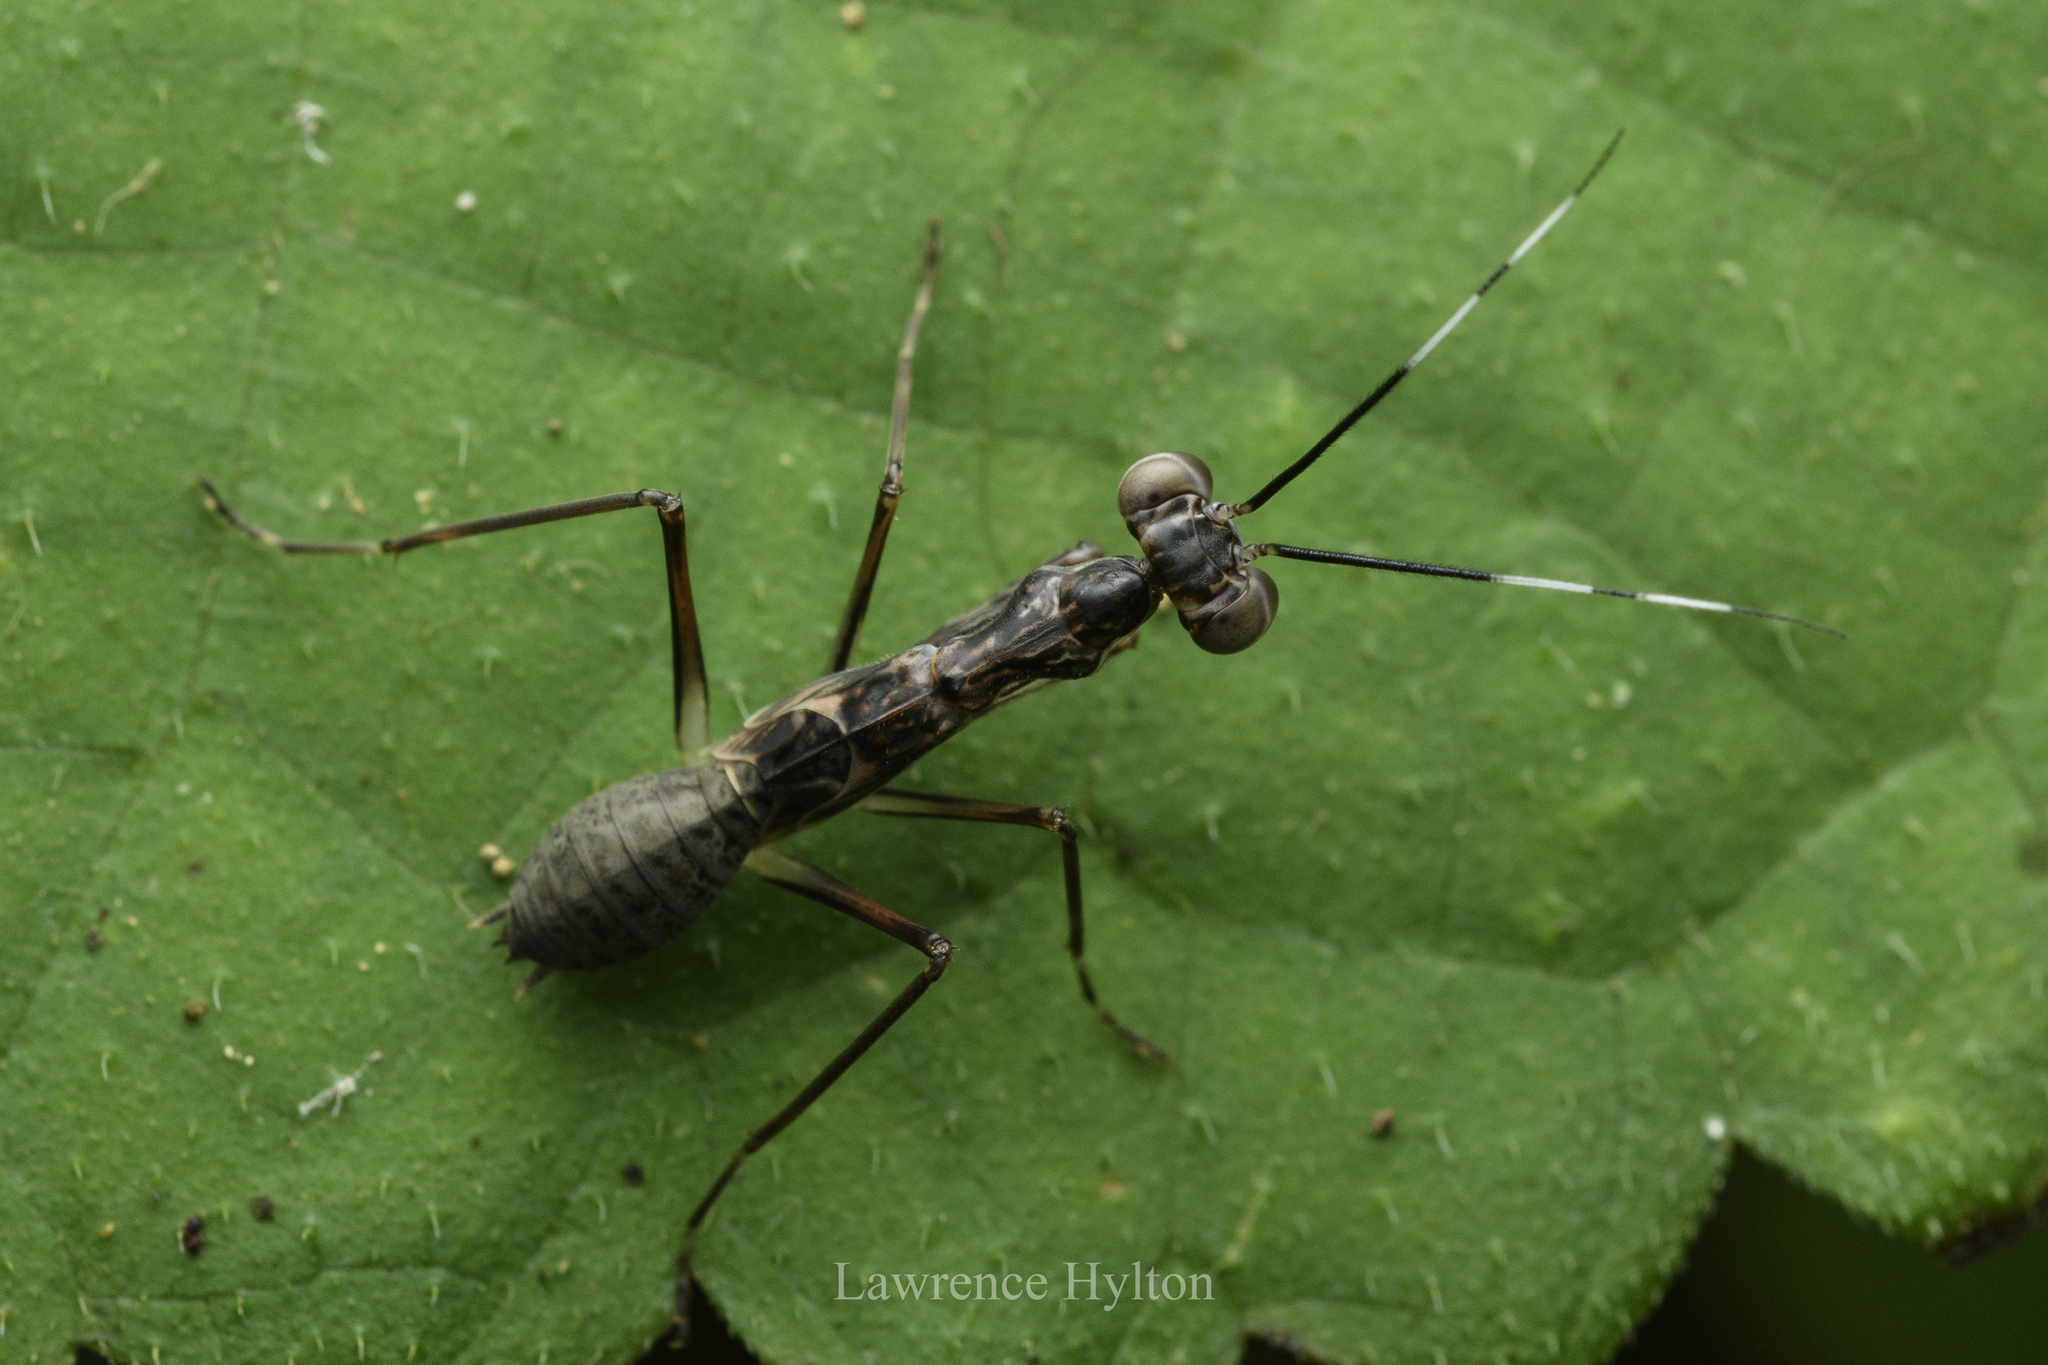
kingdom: Animalia
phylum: Arthropoda
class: Insecta
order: Mantodea
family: Gonypetidae
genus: Spilomantis
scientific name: Spilomantis occipitalis
